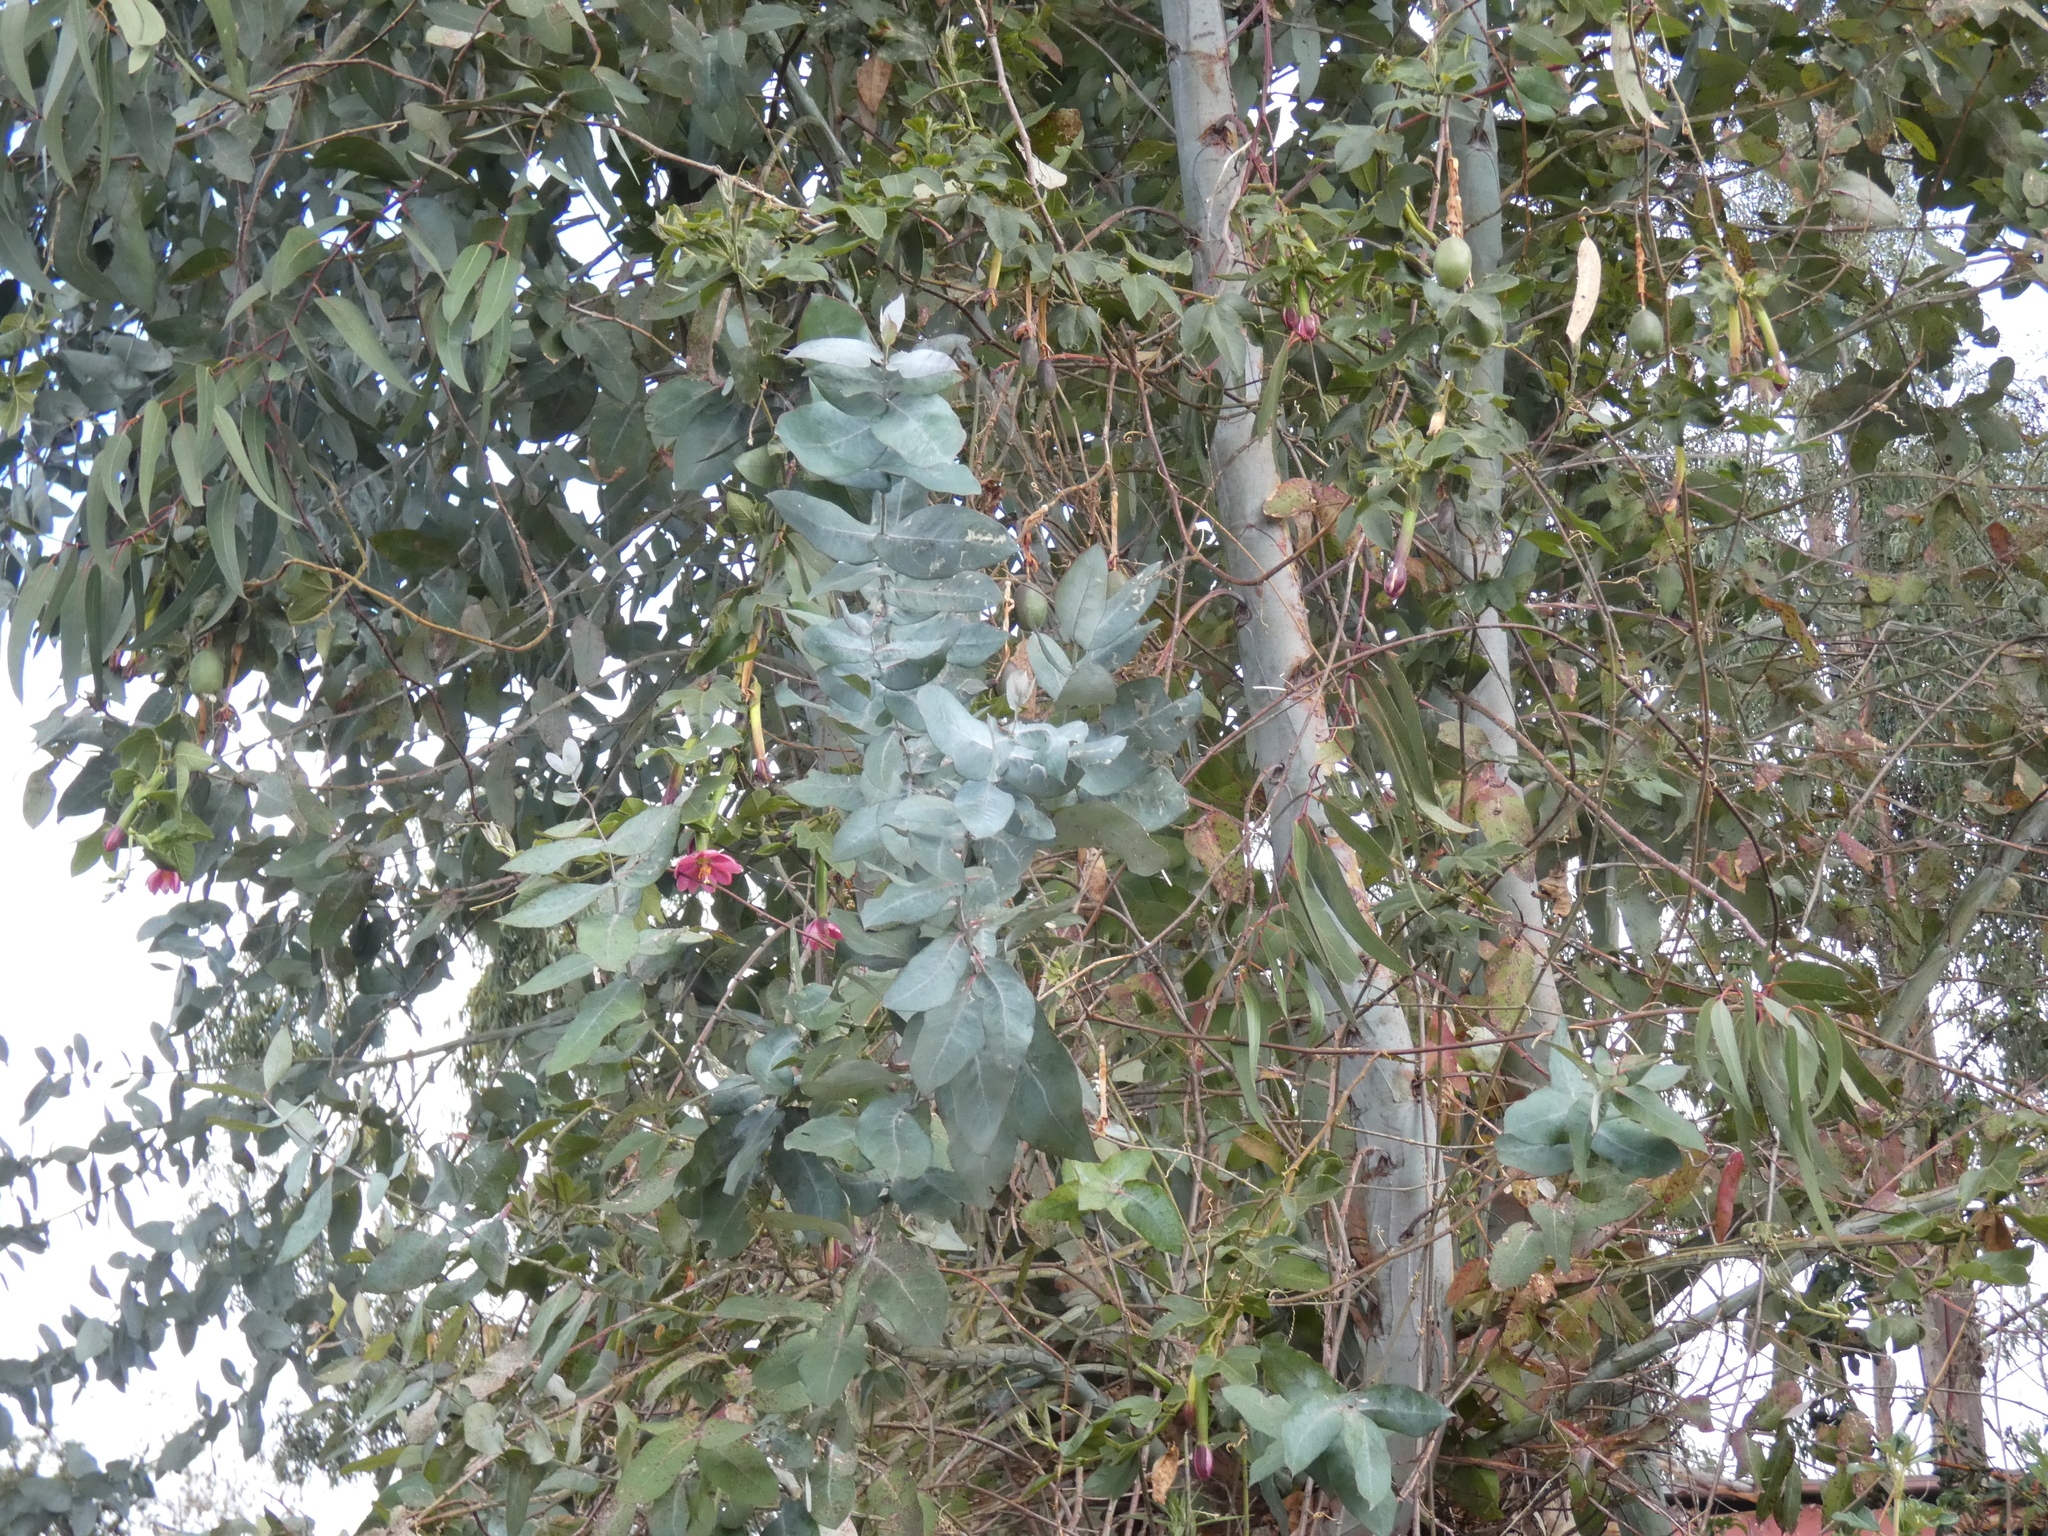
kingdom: Plantae
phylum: Tracheophyta
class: Magnoliopsida
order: Malpighiales
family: Passifloraceae
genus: Passiflora
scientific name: Passiflora tripartita
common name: Banana poka
